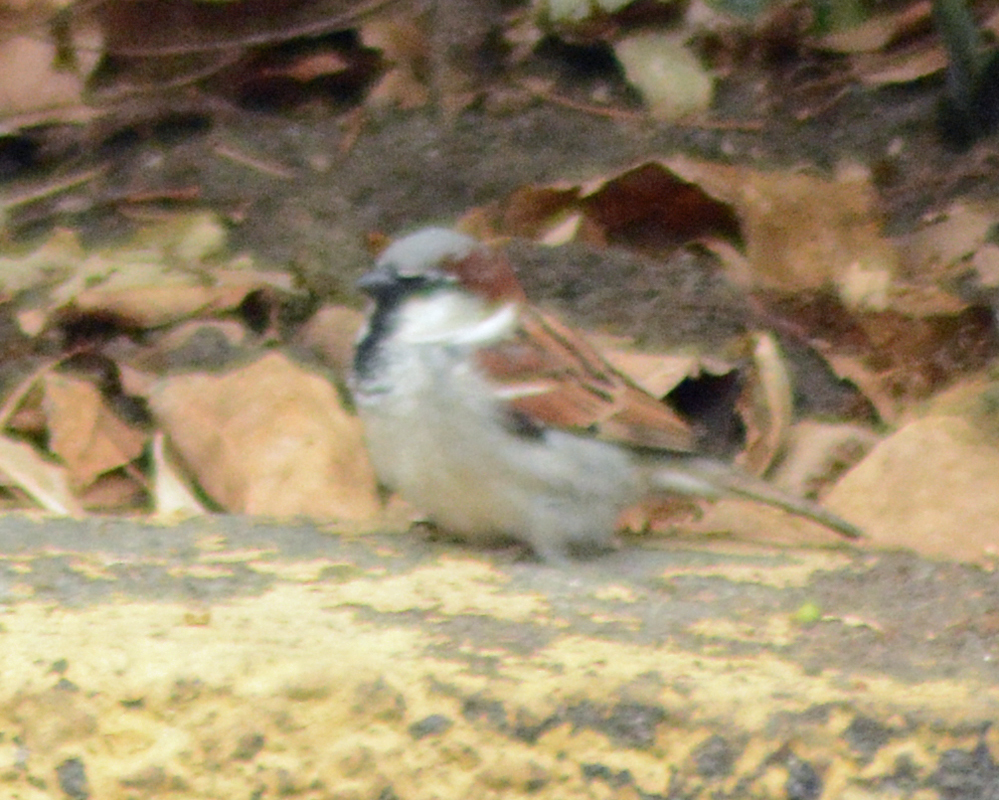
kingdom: Animalia
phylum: Chordata
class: Aves
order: Passeriformes
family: Passeridae
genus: Passer
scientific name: Passer domesticus
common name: House sparrow
